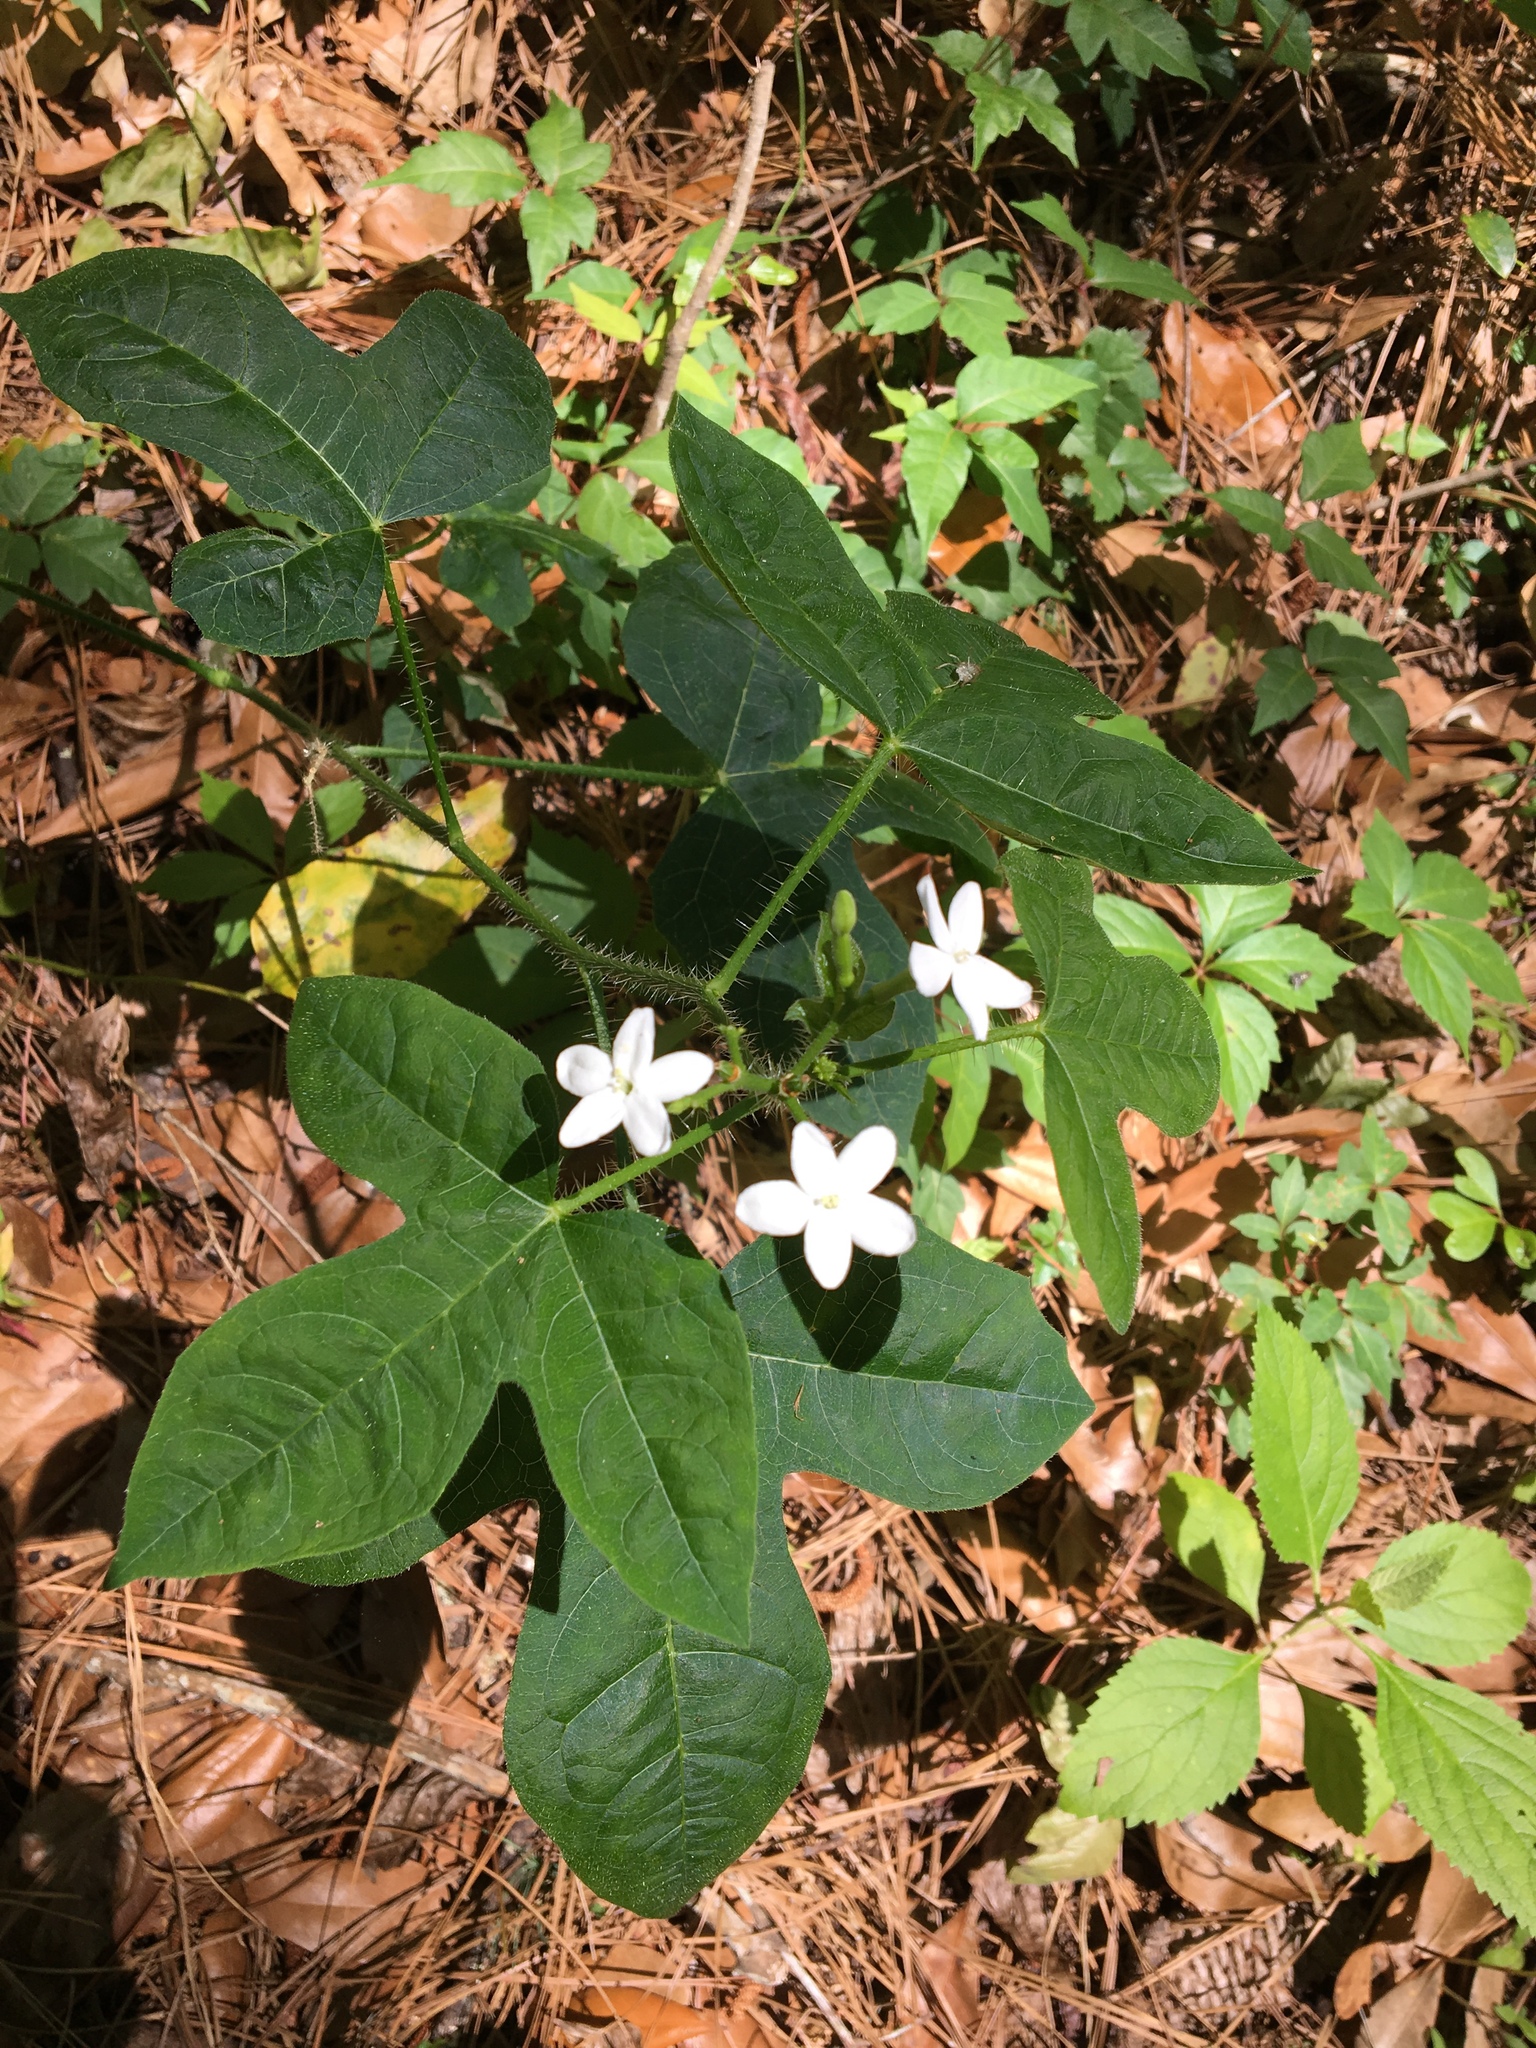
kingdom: Plantae
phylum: Tracheophyta
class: Magnoliopsida
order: Malpighiales
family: Euphorbiaceae
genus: Cnidoscolus
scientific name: Cnidoscolus stimulosus
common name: Bull-nettle
